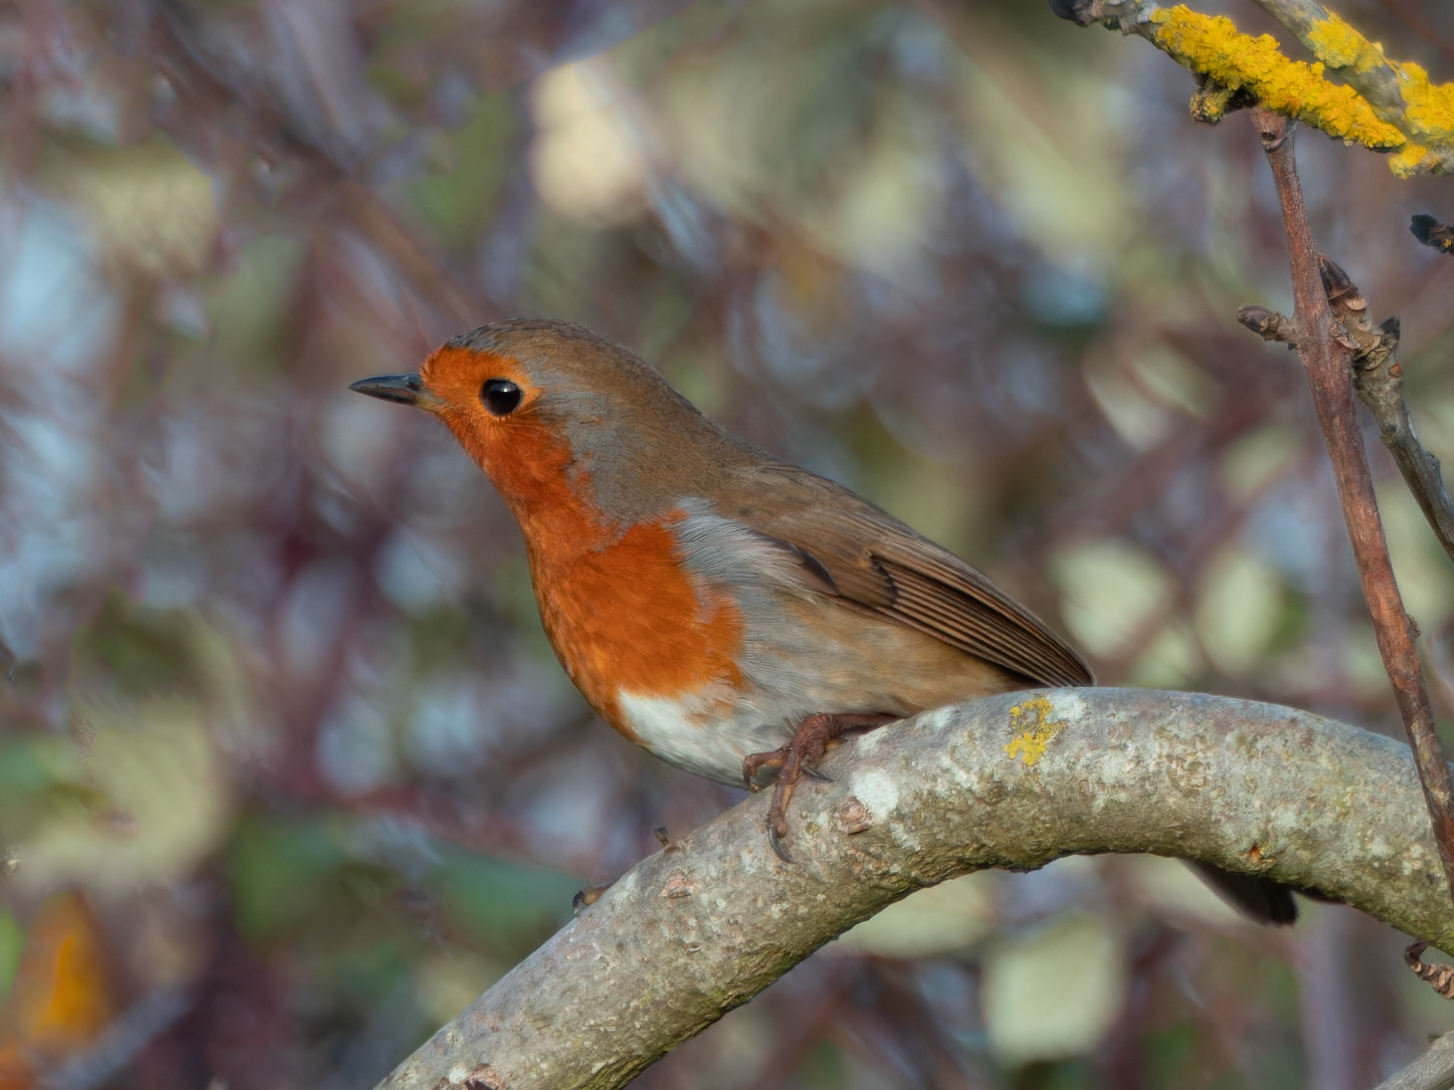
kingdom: Animalia
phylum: Chordata
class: Aves
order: Passeriformes
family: Muscicapidae
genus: Erithacus
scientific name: Erithacus rubecula
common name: European robin
